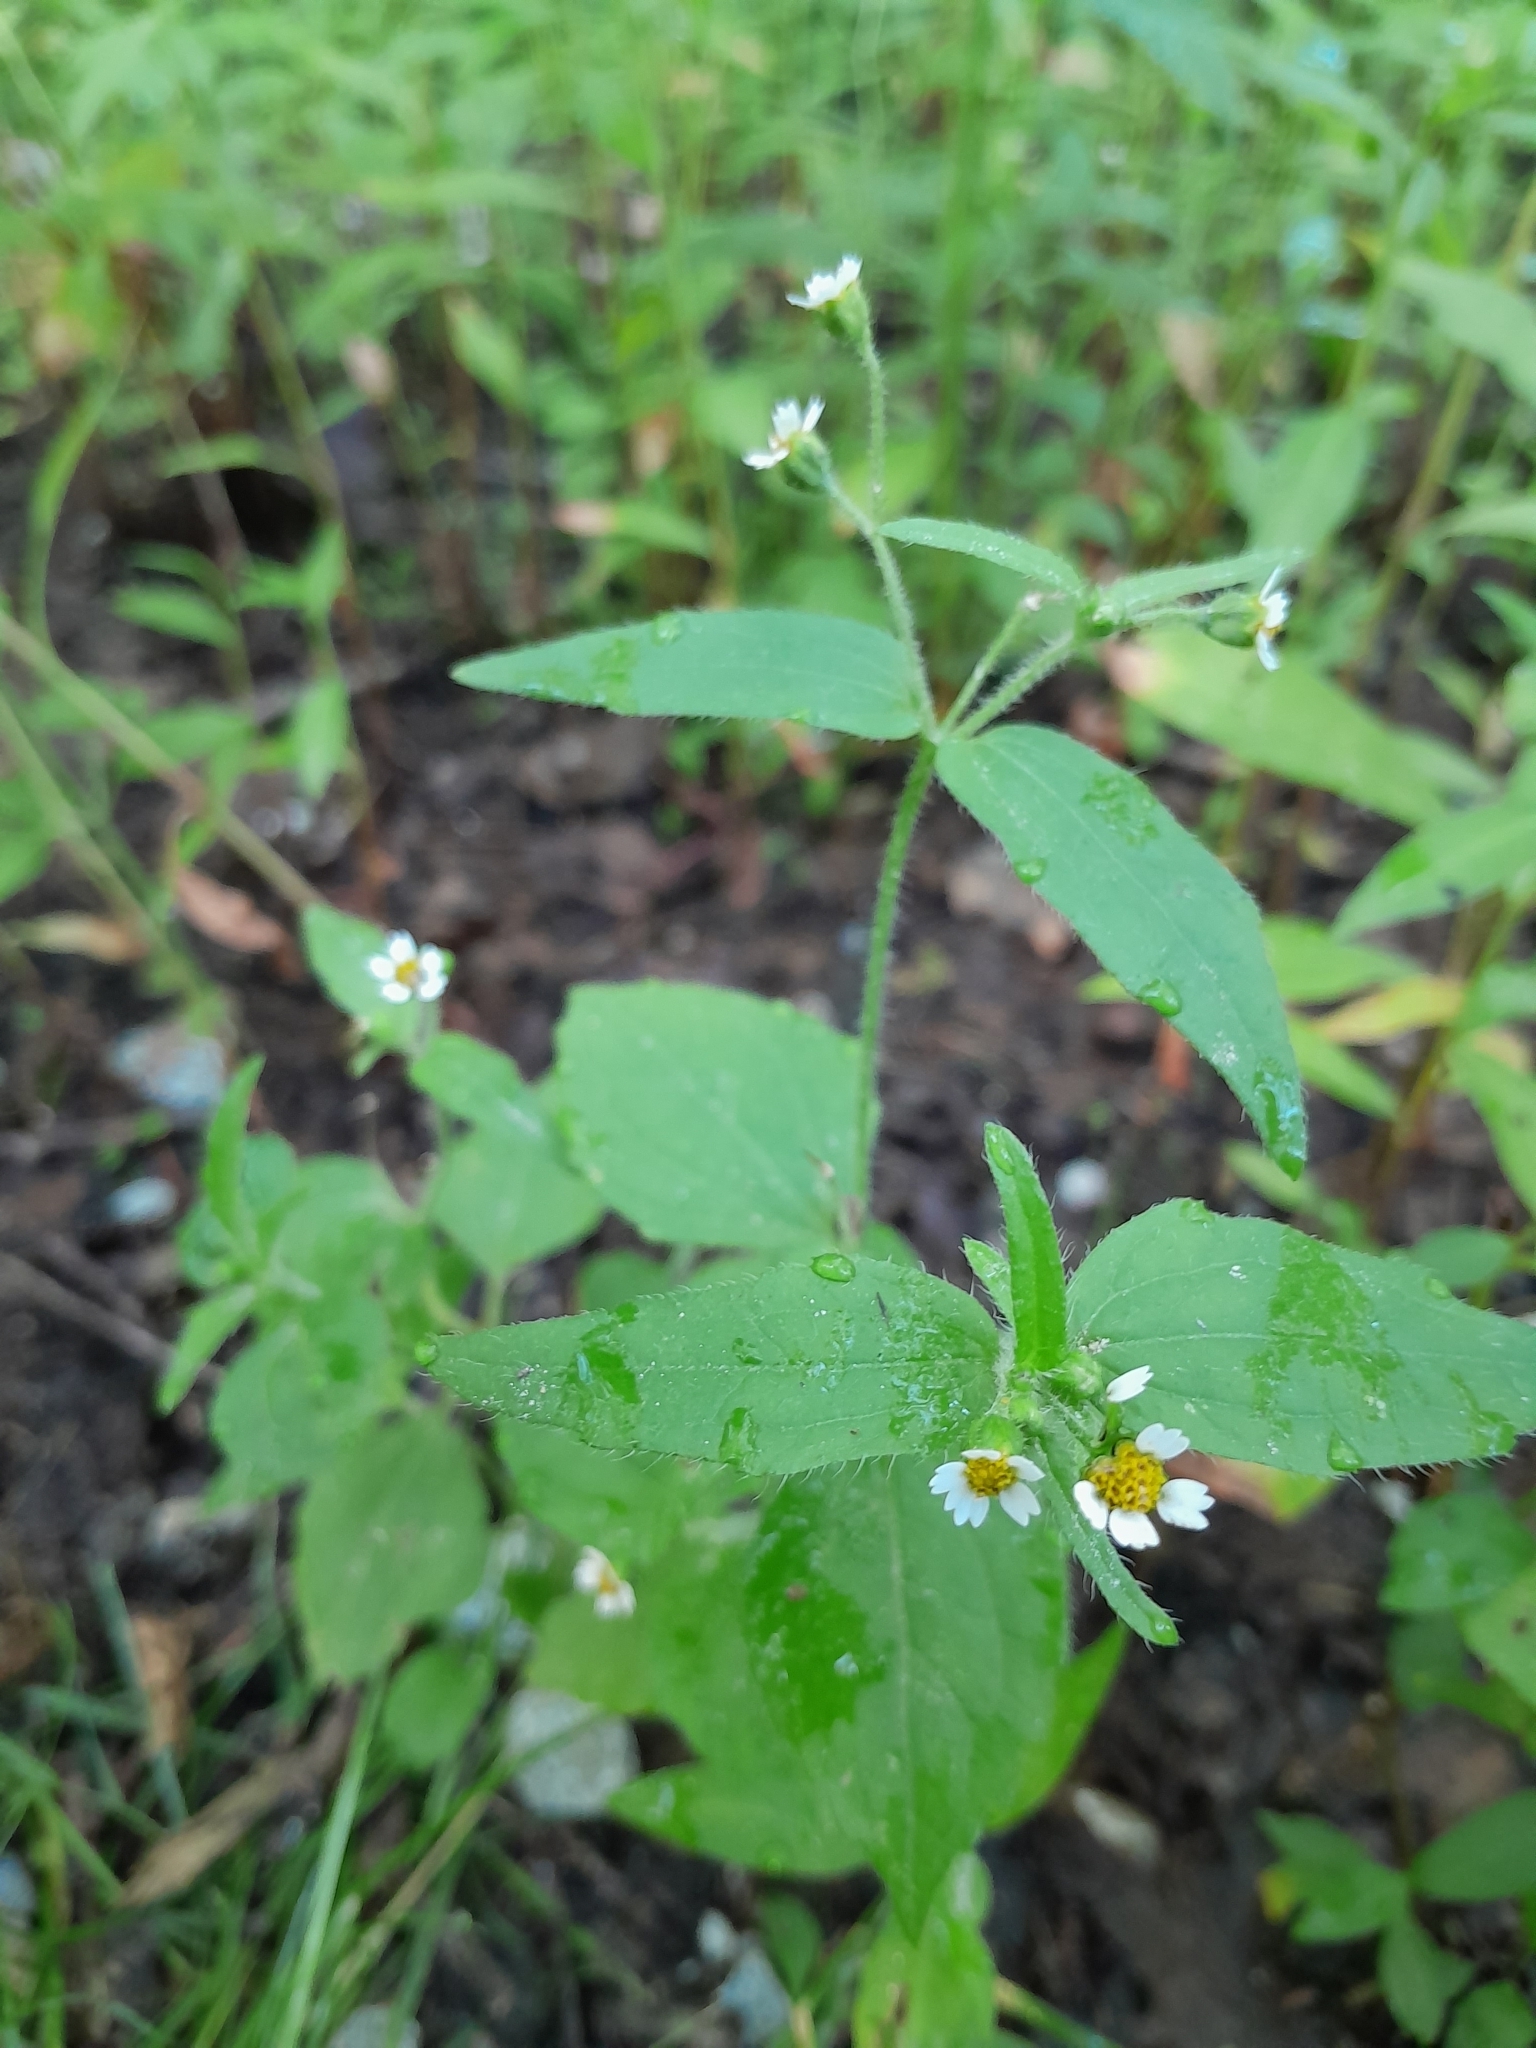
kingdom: Plantae
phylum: Tracheophyta
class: Magnoliopsida
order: Asterales
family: Asteraceae
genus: Galinsoga
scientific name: Galinsoga quadriradiata
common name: Shaggy soldier
